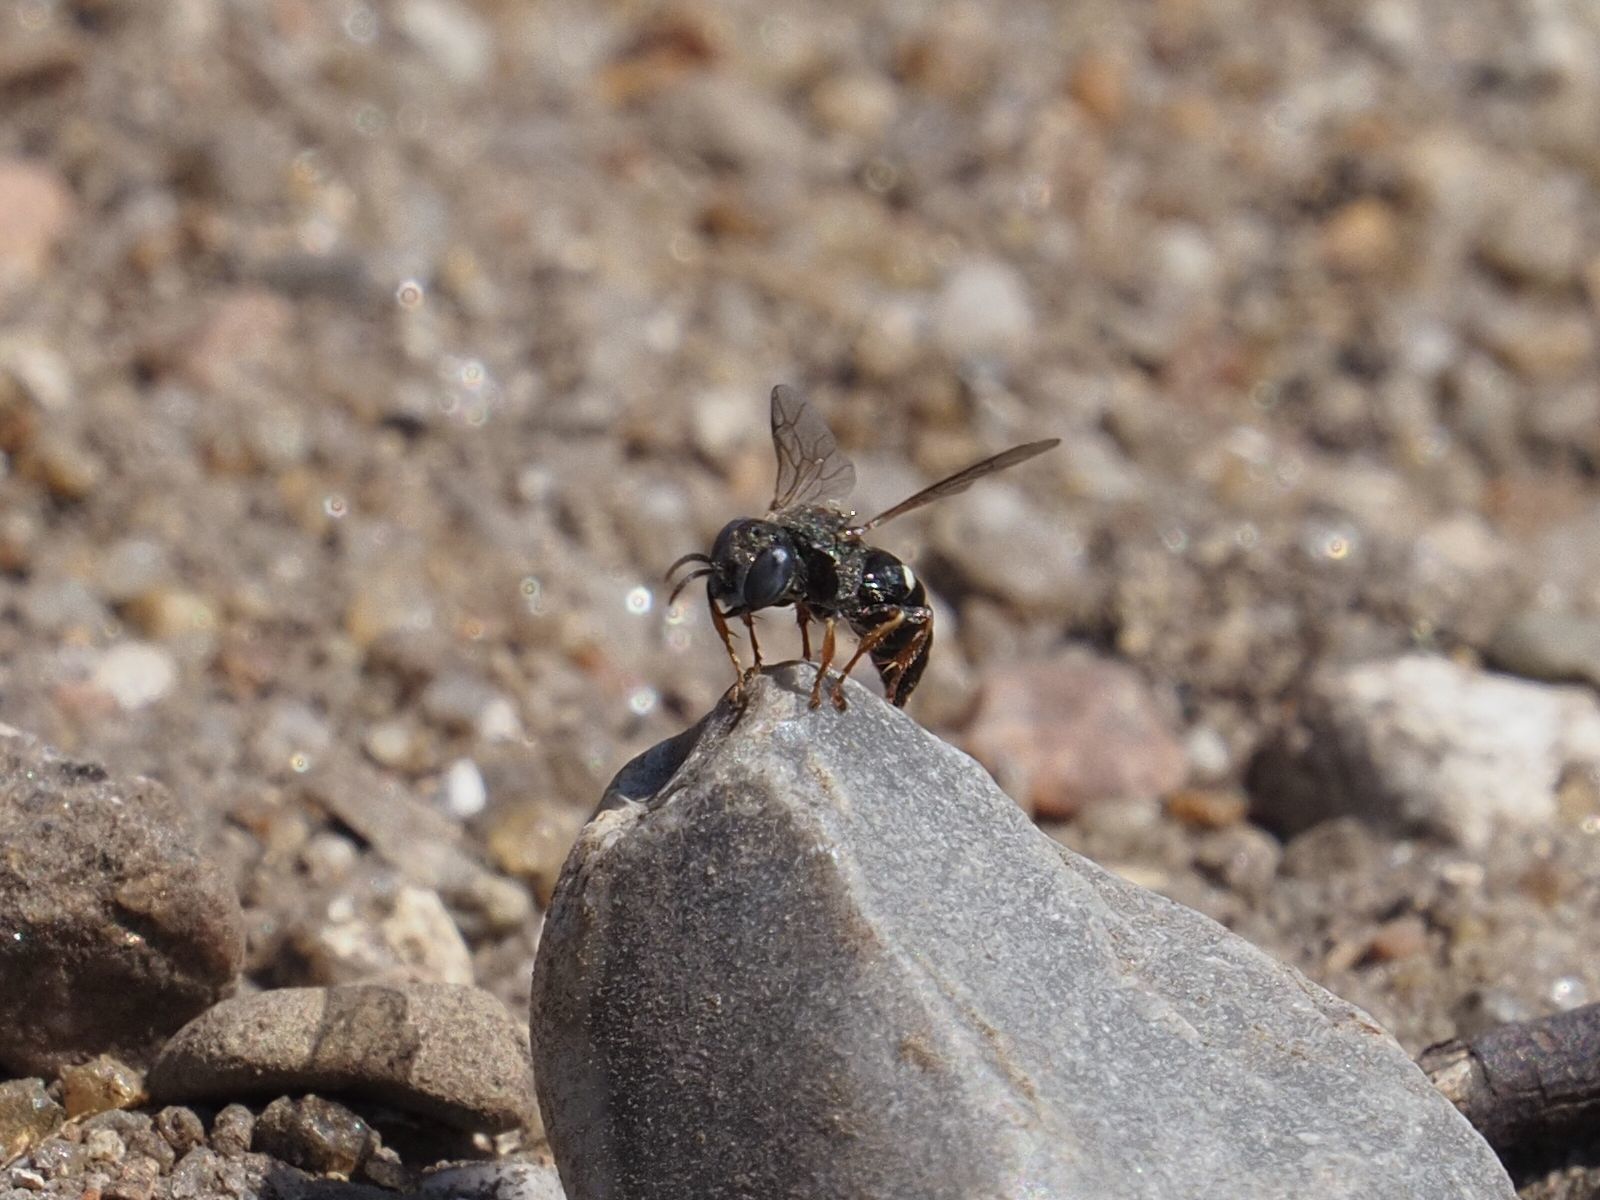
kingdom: Animalia
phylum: Arthropoda
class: Insecta
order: Hymenoptera
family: Crabronidae
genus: Oxybelus
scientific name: Oxybelus uniglumis
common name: Common spiny digger wasp
